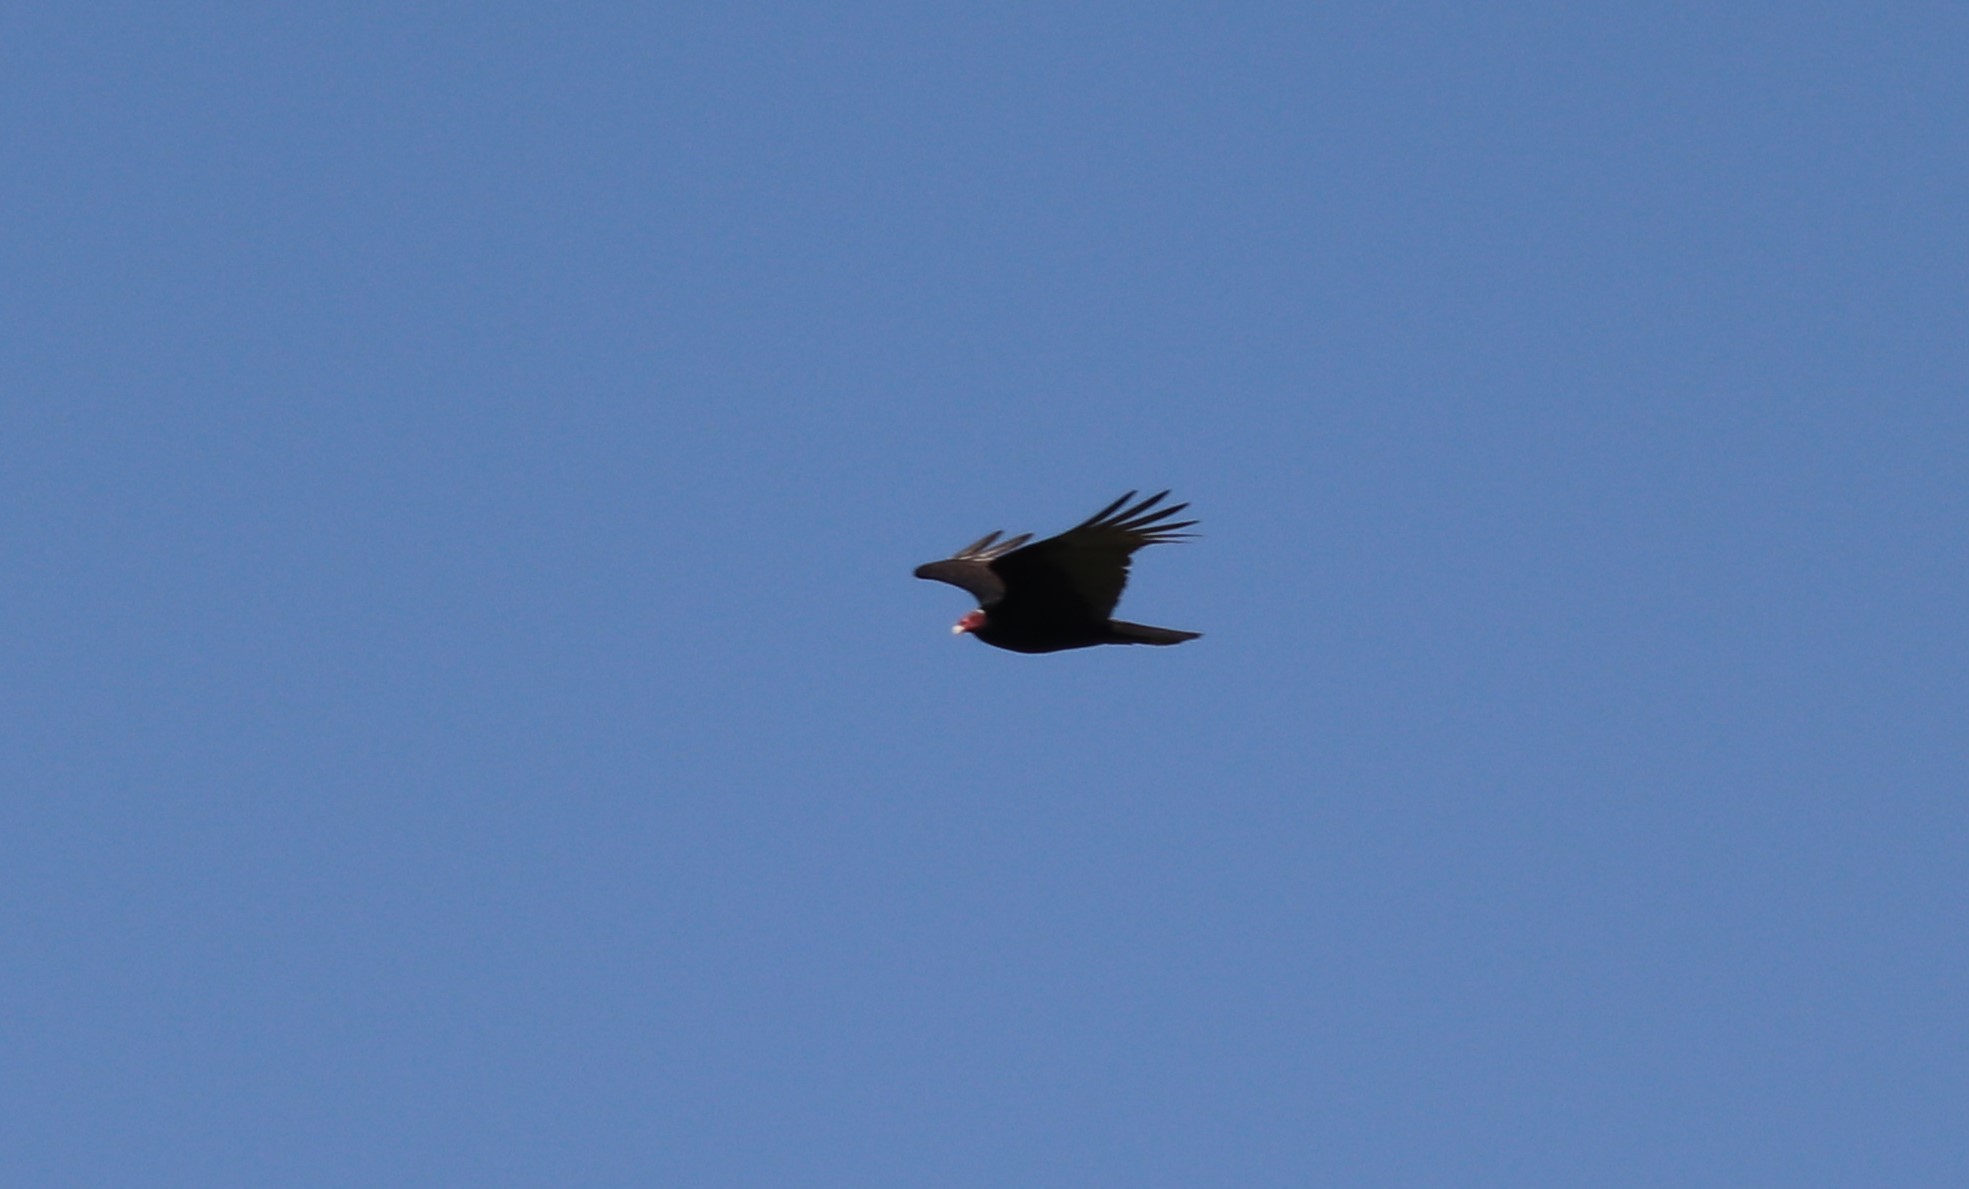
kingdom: Animalia
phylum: Chordata
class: Aves
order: Accipitriformes
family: Cathartidae
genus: Cathartes
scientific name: Cathartes aura
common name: Turkey vulture
